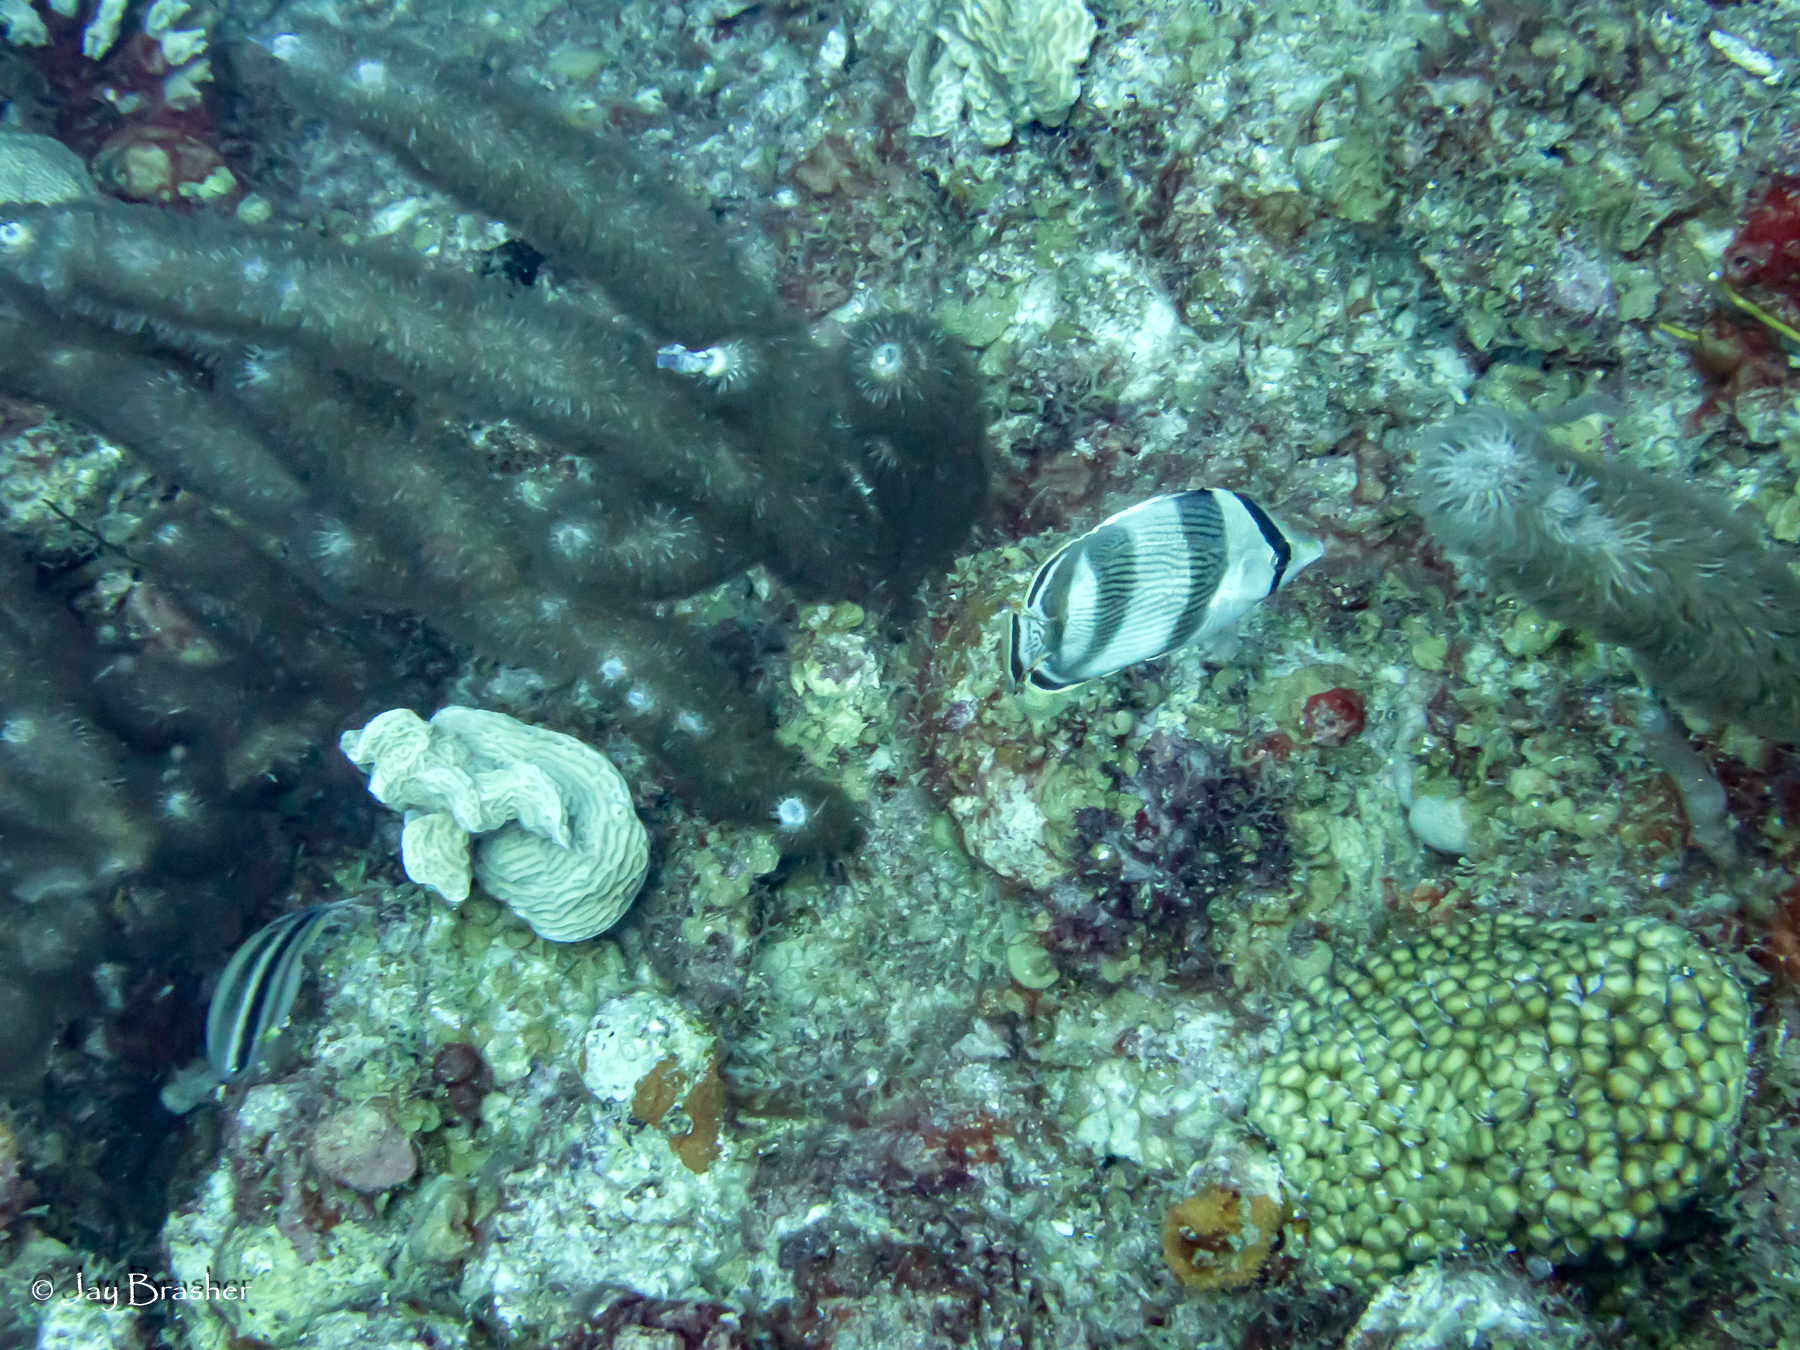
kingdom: Animalia
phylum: Cnidaria
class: Anthozoa
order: Scleralcyonacea
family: Briareidae
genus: Briareum
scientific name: Briareum asbestinum
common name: Corky sea finger
